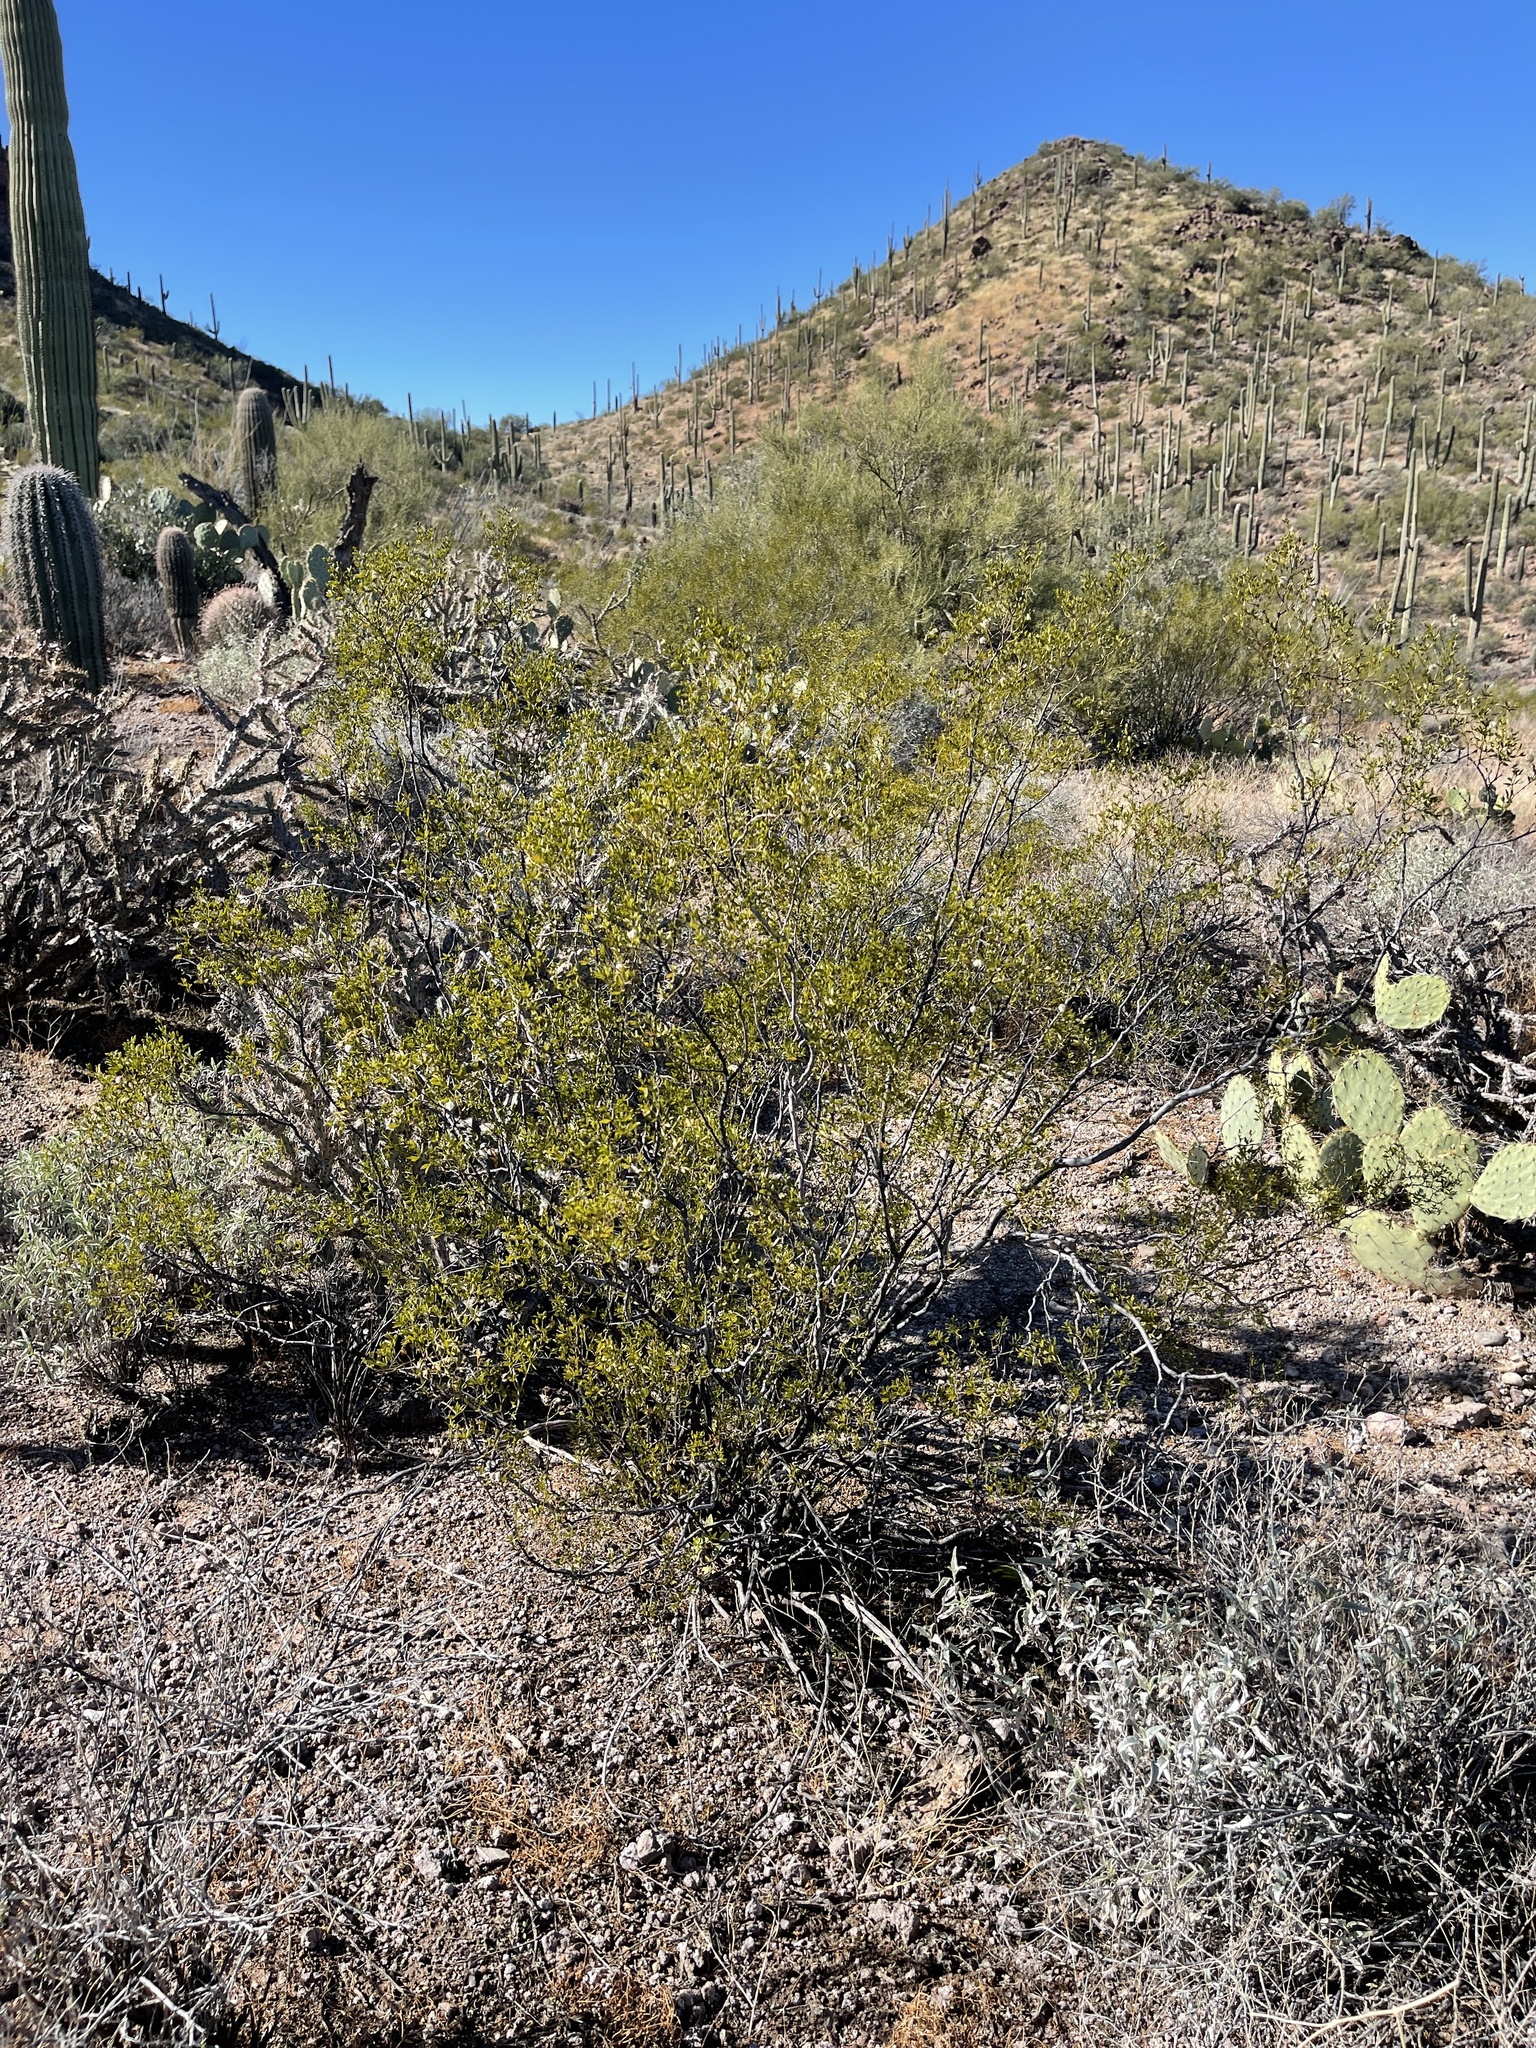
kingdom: Plantae
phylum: Tracheophyta
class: Magnoliopsida
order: Zygophyllales
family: Zygophyllaceae
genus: Larrea
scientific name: Larrea tridentata
